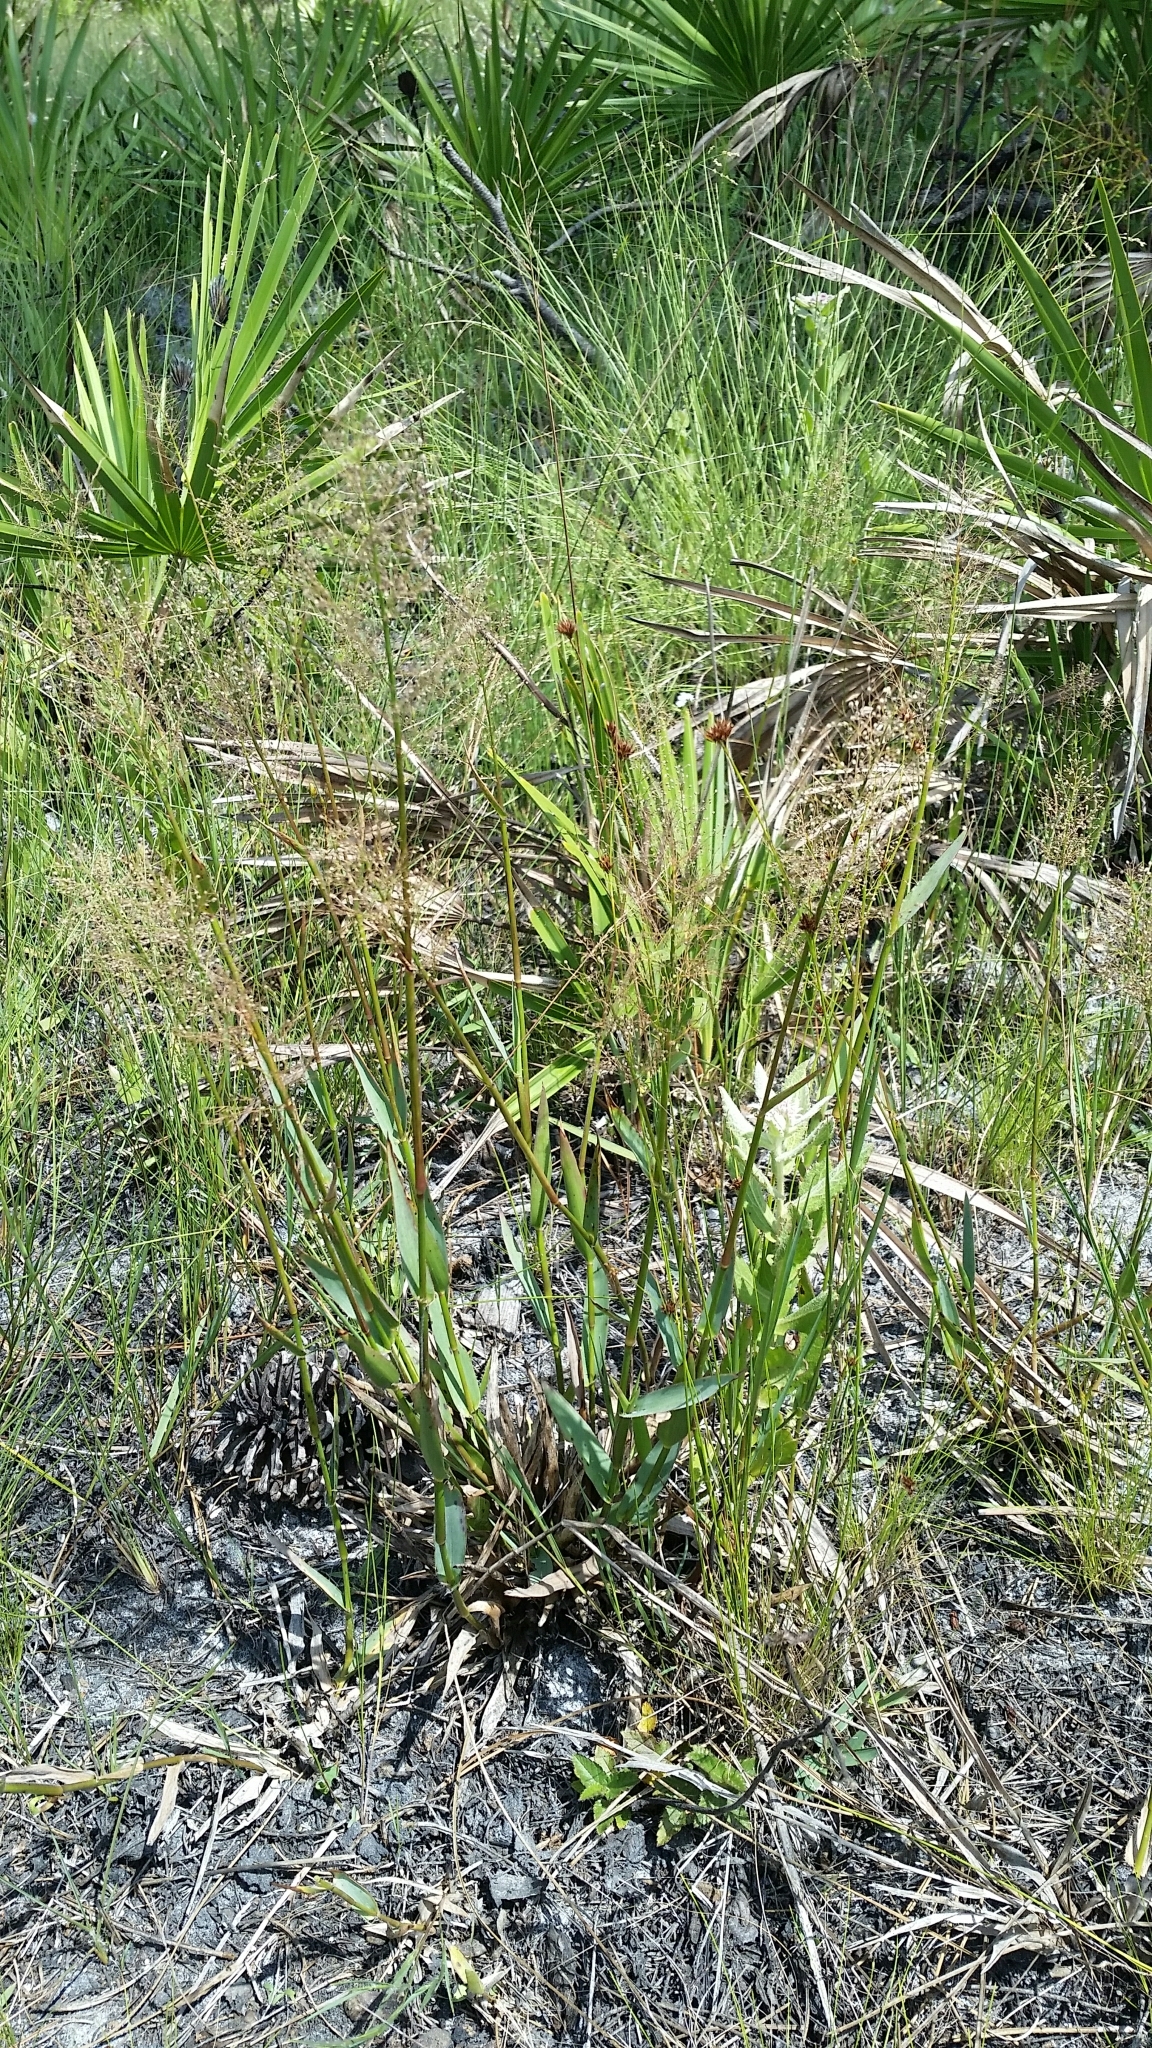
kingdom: Plantae
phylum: Tracheophyta
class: Liliopsida
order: Poales
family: Poaceae
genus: Dichanthelium
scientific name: Dichanthelium erectifolium
